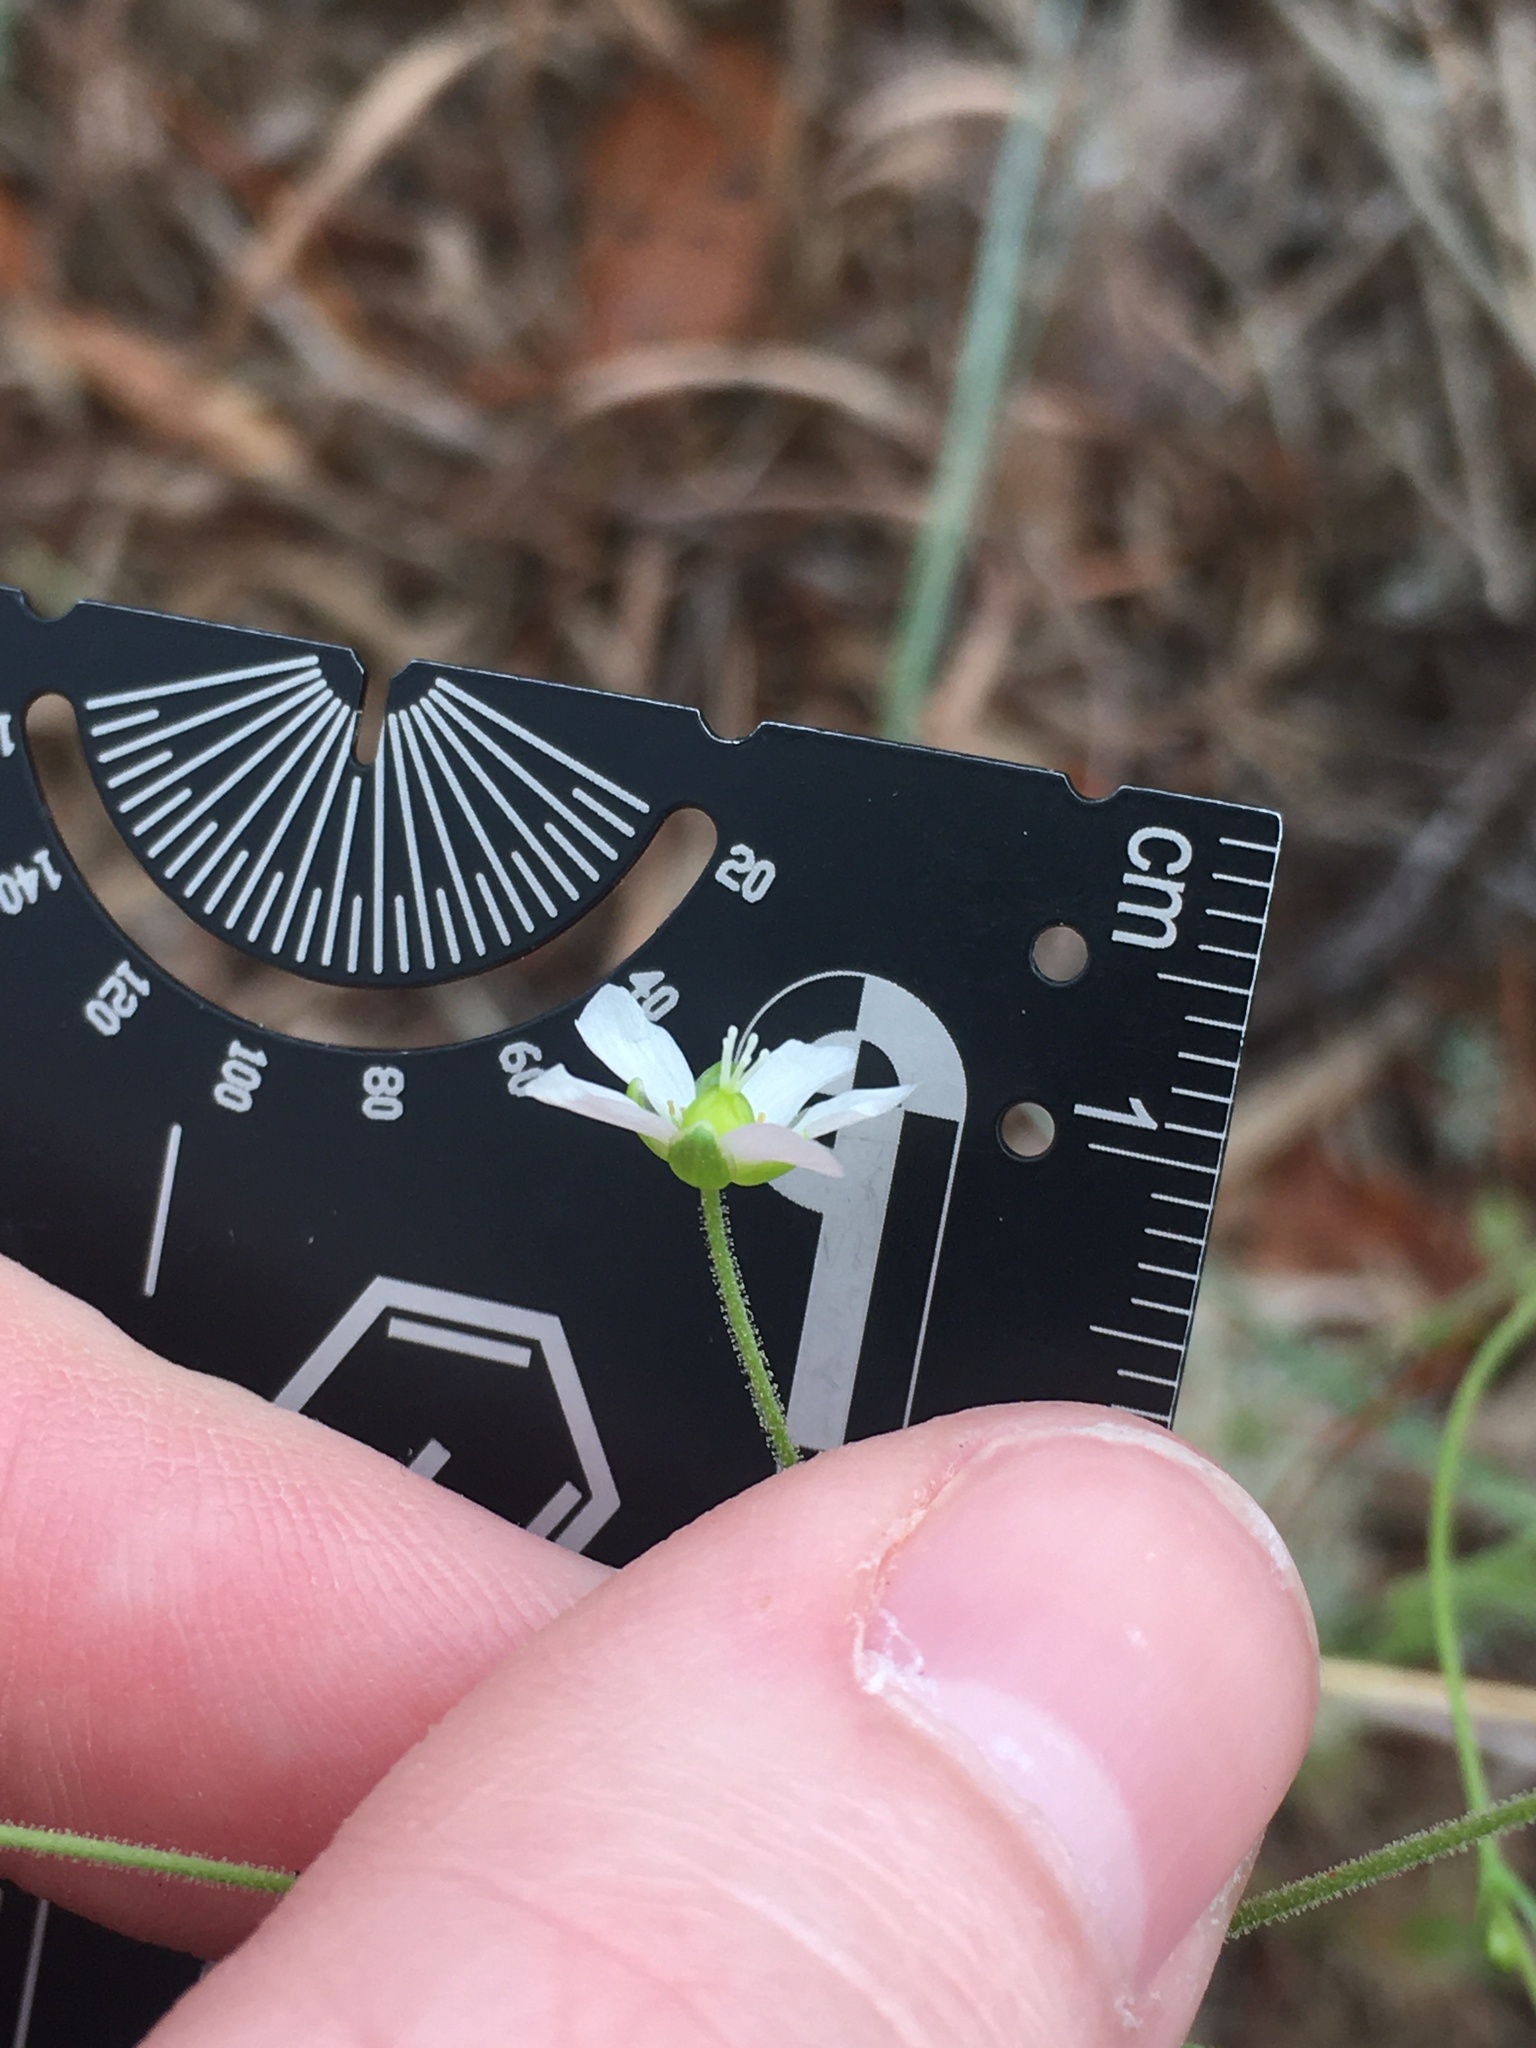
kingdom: Plantae
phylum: Tracheophyta
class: Magnoliopsida
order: Caryophyllales
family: Caryophyllaceae
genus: Geocarpon
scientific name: Geocarpon carolinianum
